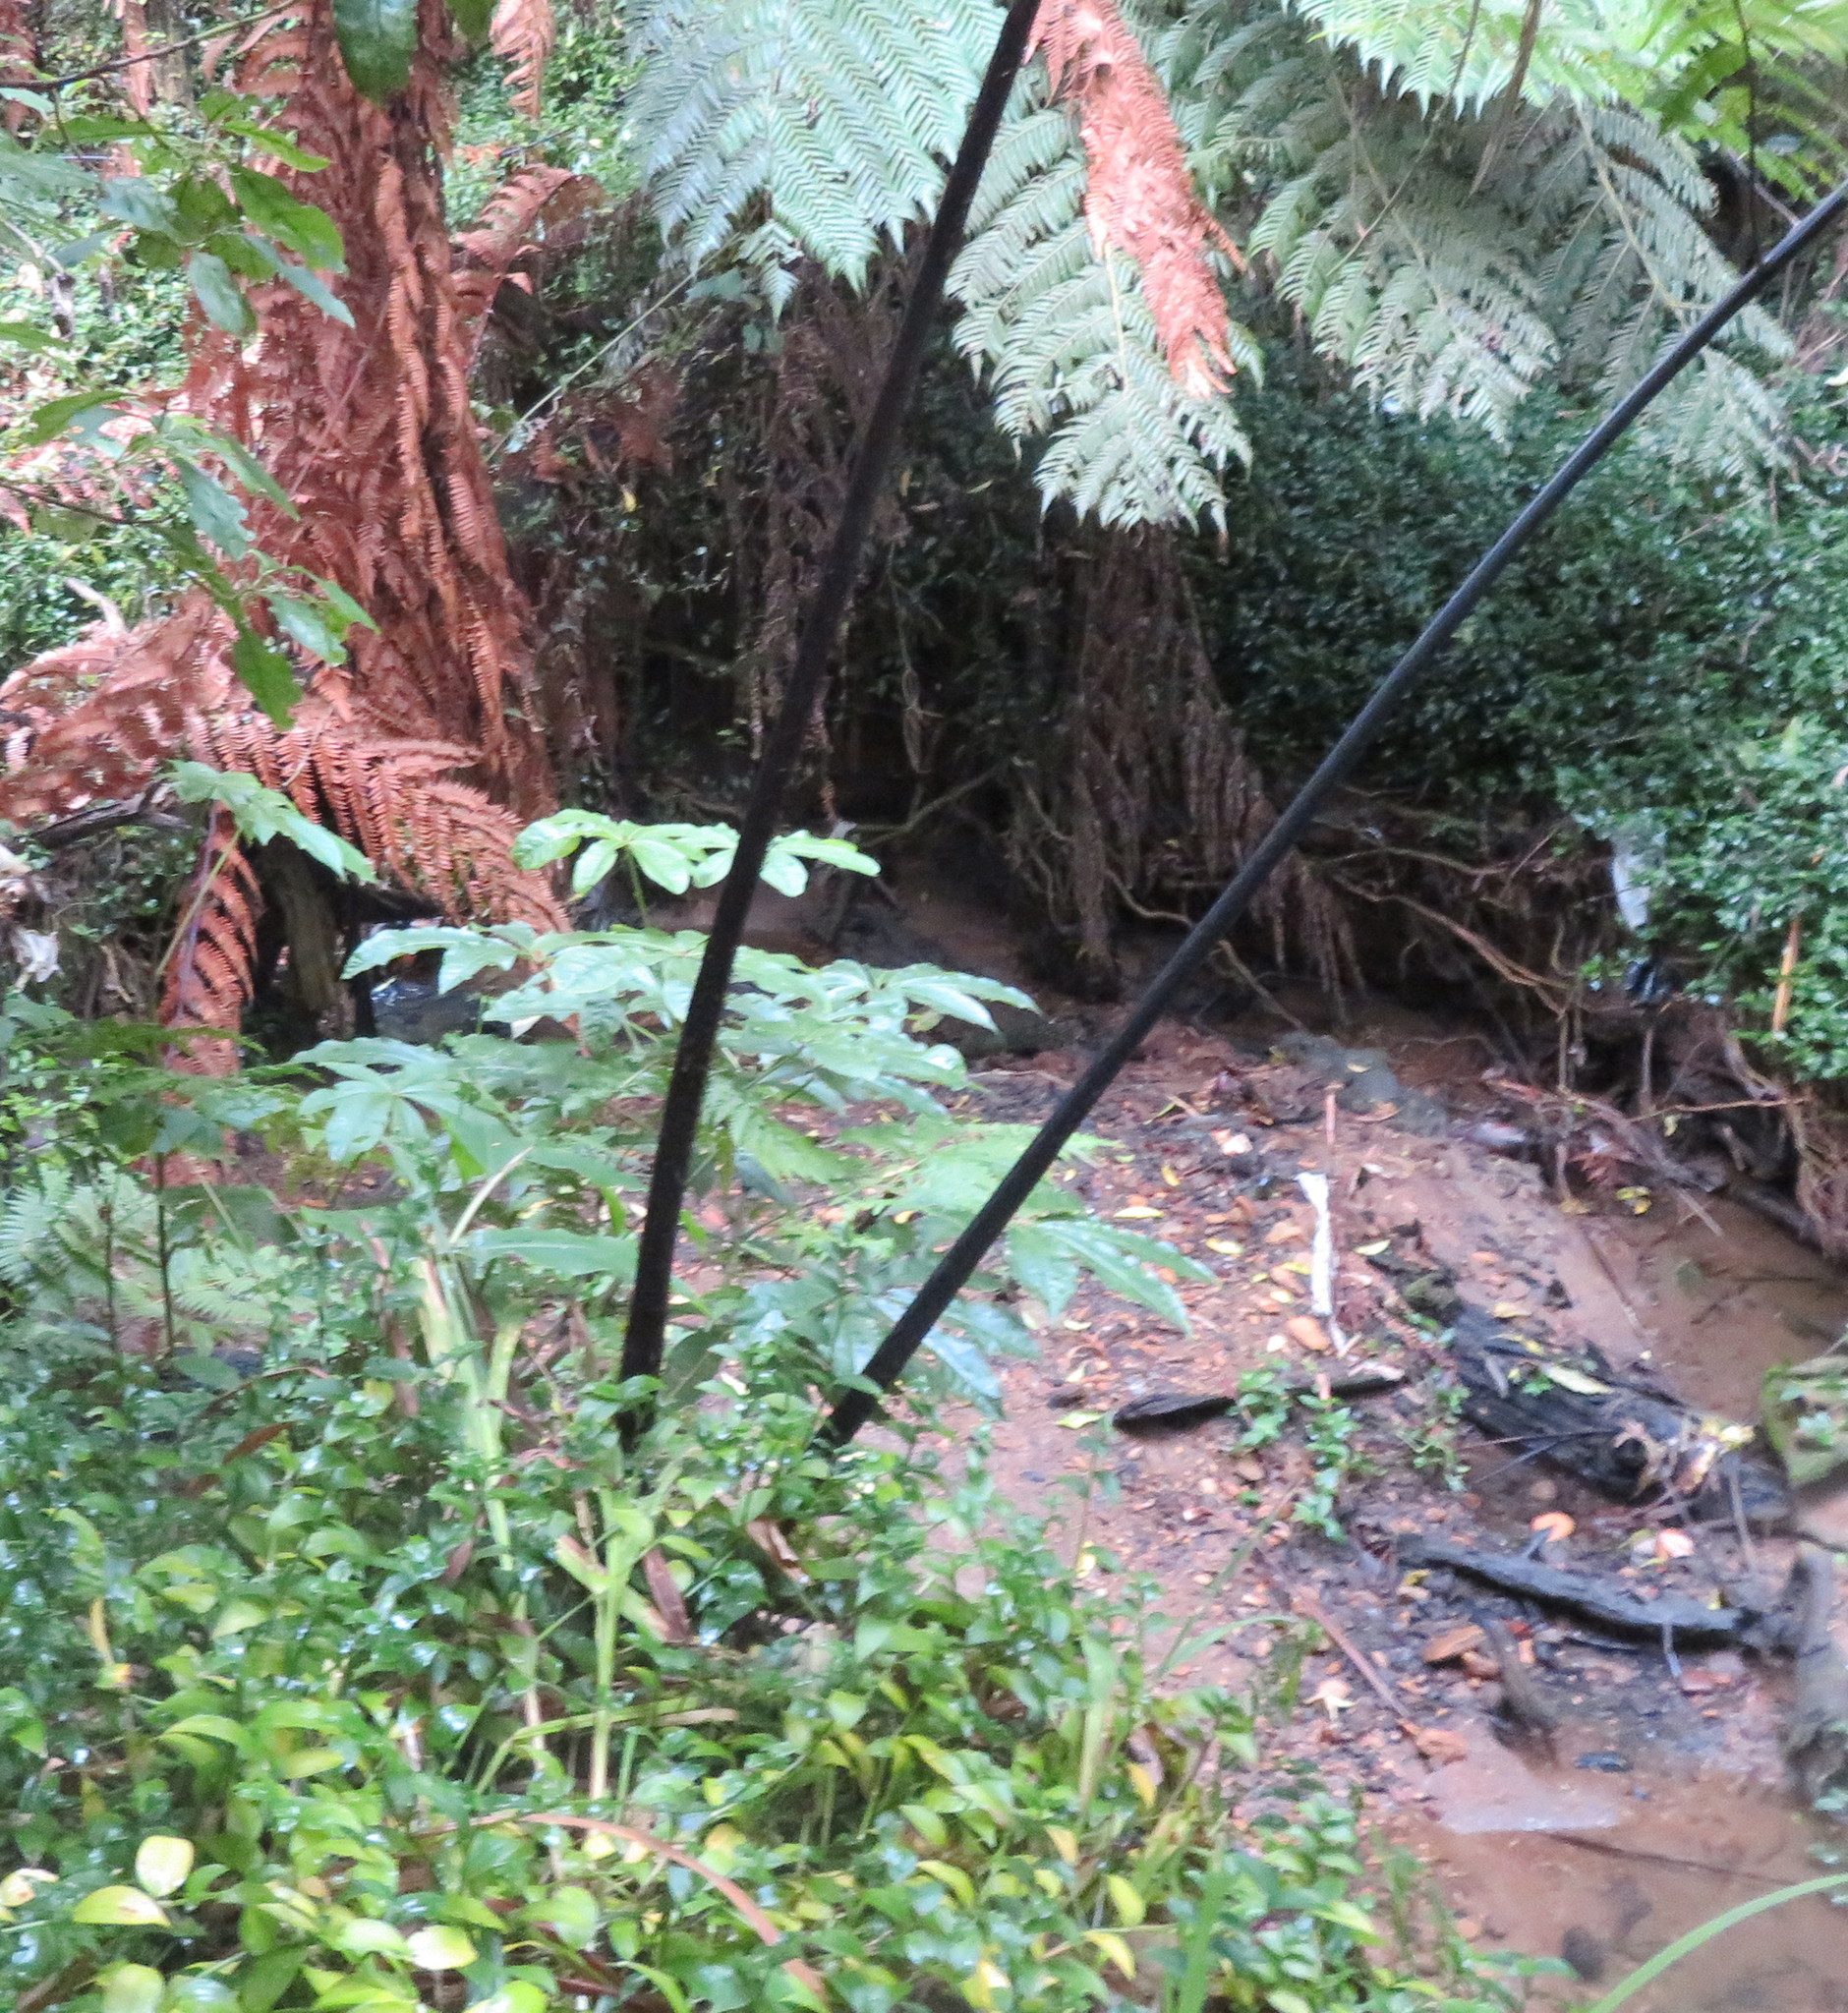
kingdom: Plantae
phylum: Tracheophyta
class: Magnoliopsida
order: Apiales
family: Araliaceae
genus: Schefflera
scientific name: Schefflera digitata
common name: Pate
